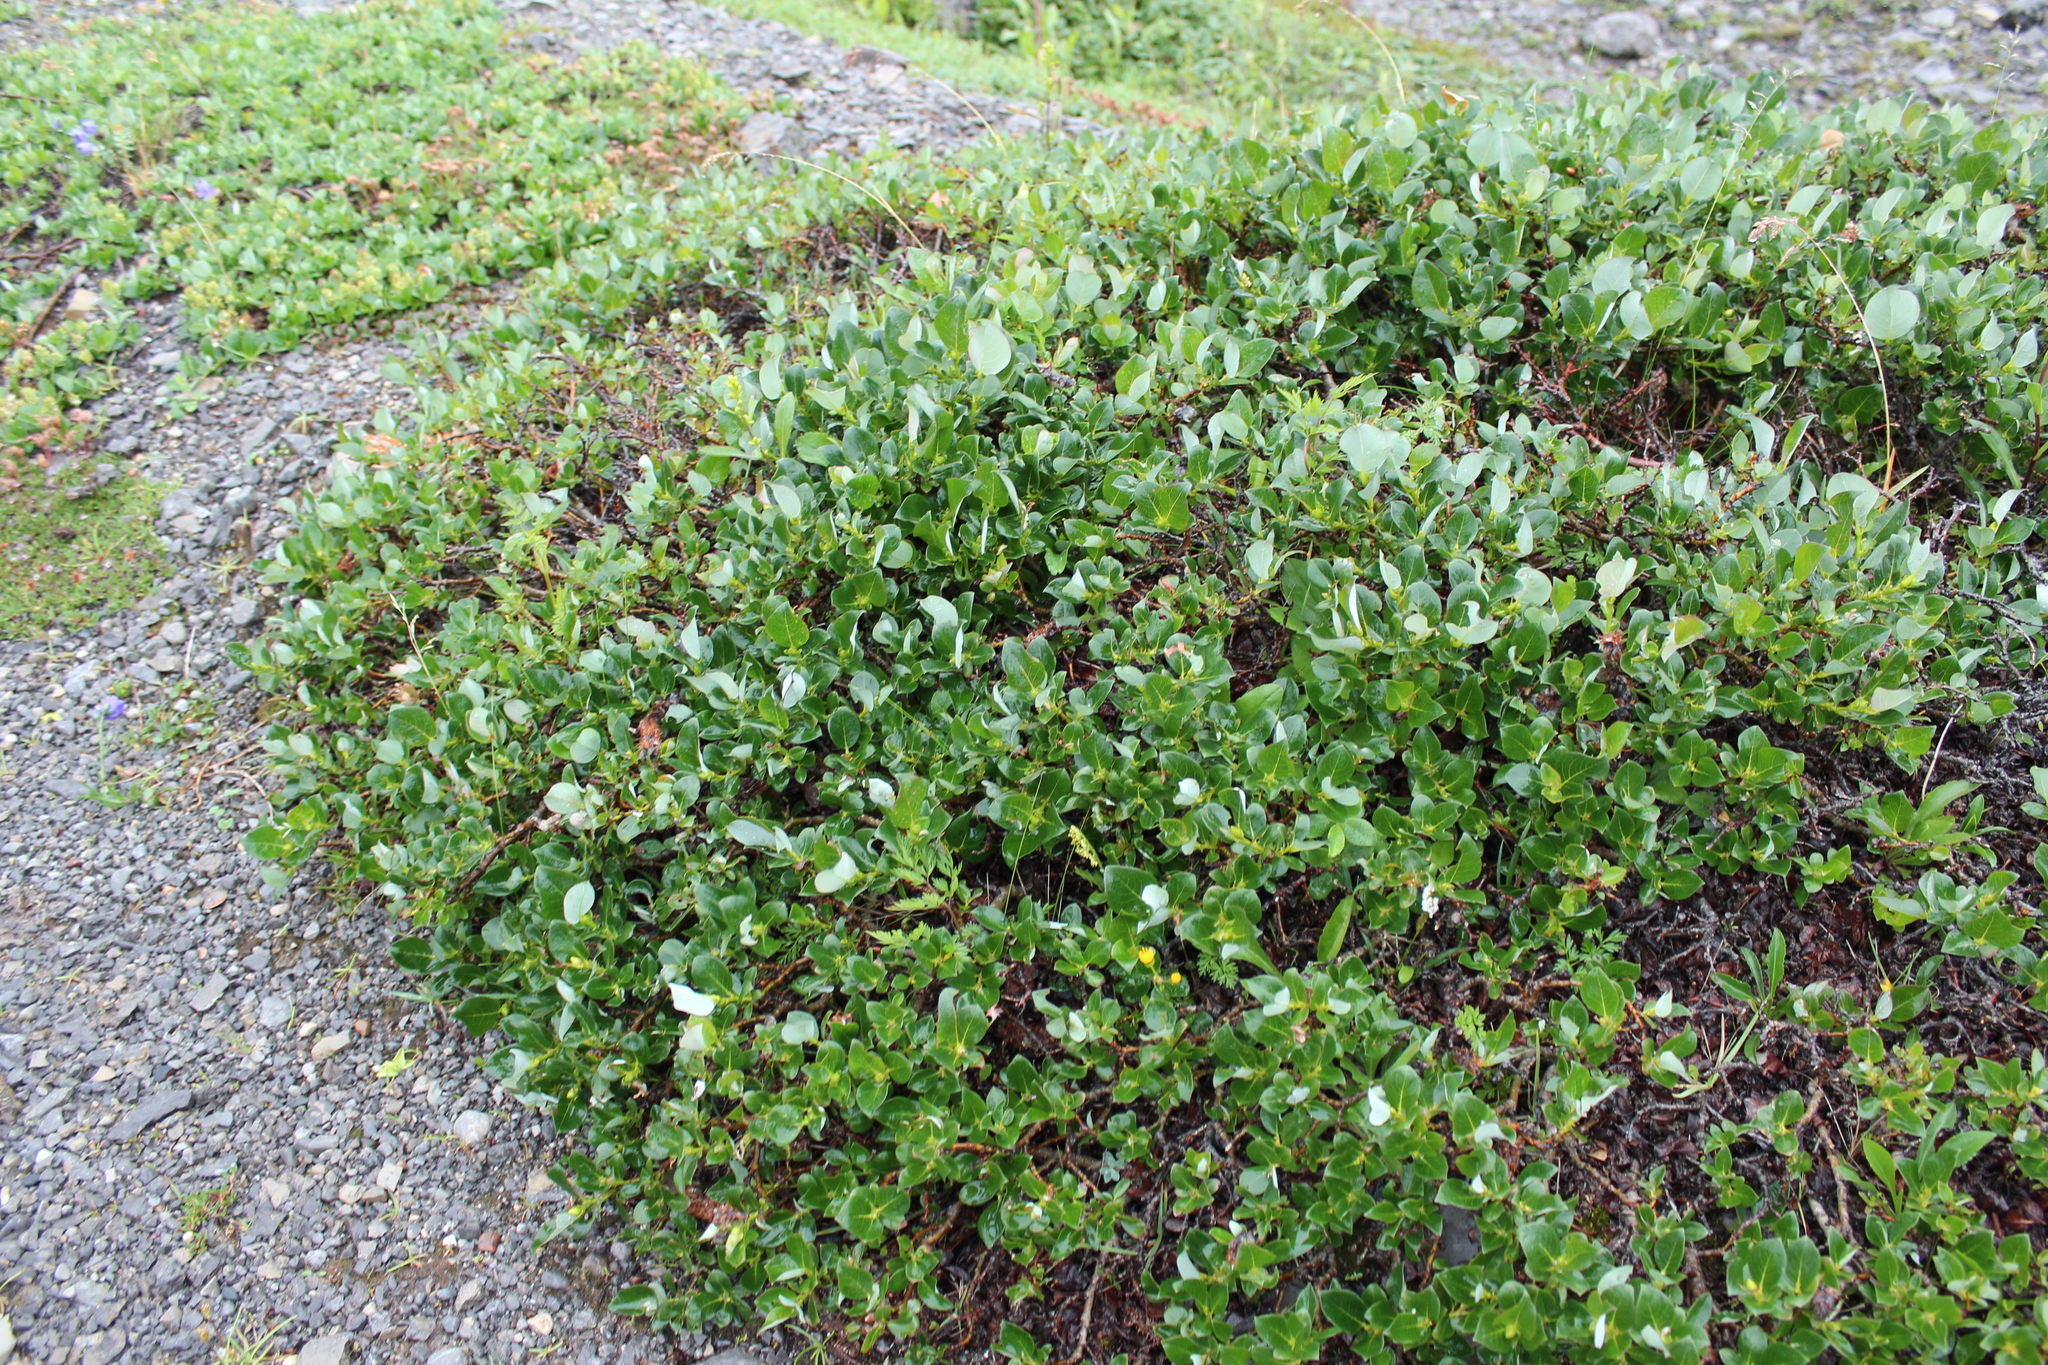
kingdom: Plantae
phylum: Tracheophyta
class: Magnoliopsida
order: Malpighiales
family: Salicaceae
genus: Salix
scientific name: Salix calcicola
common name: Calcareous willow
